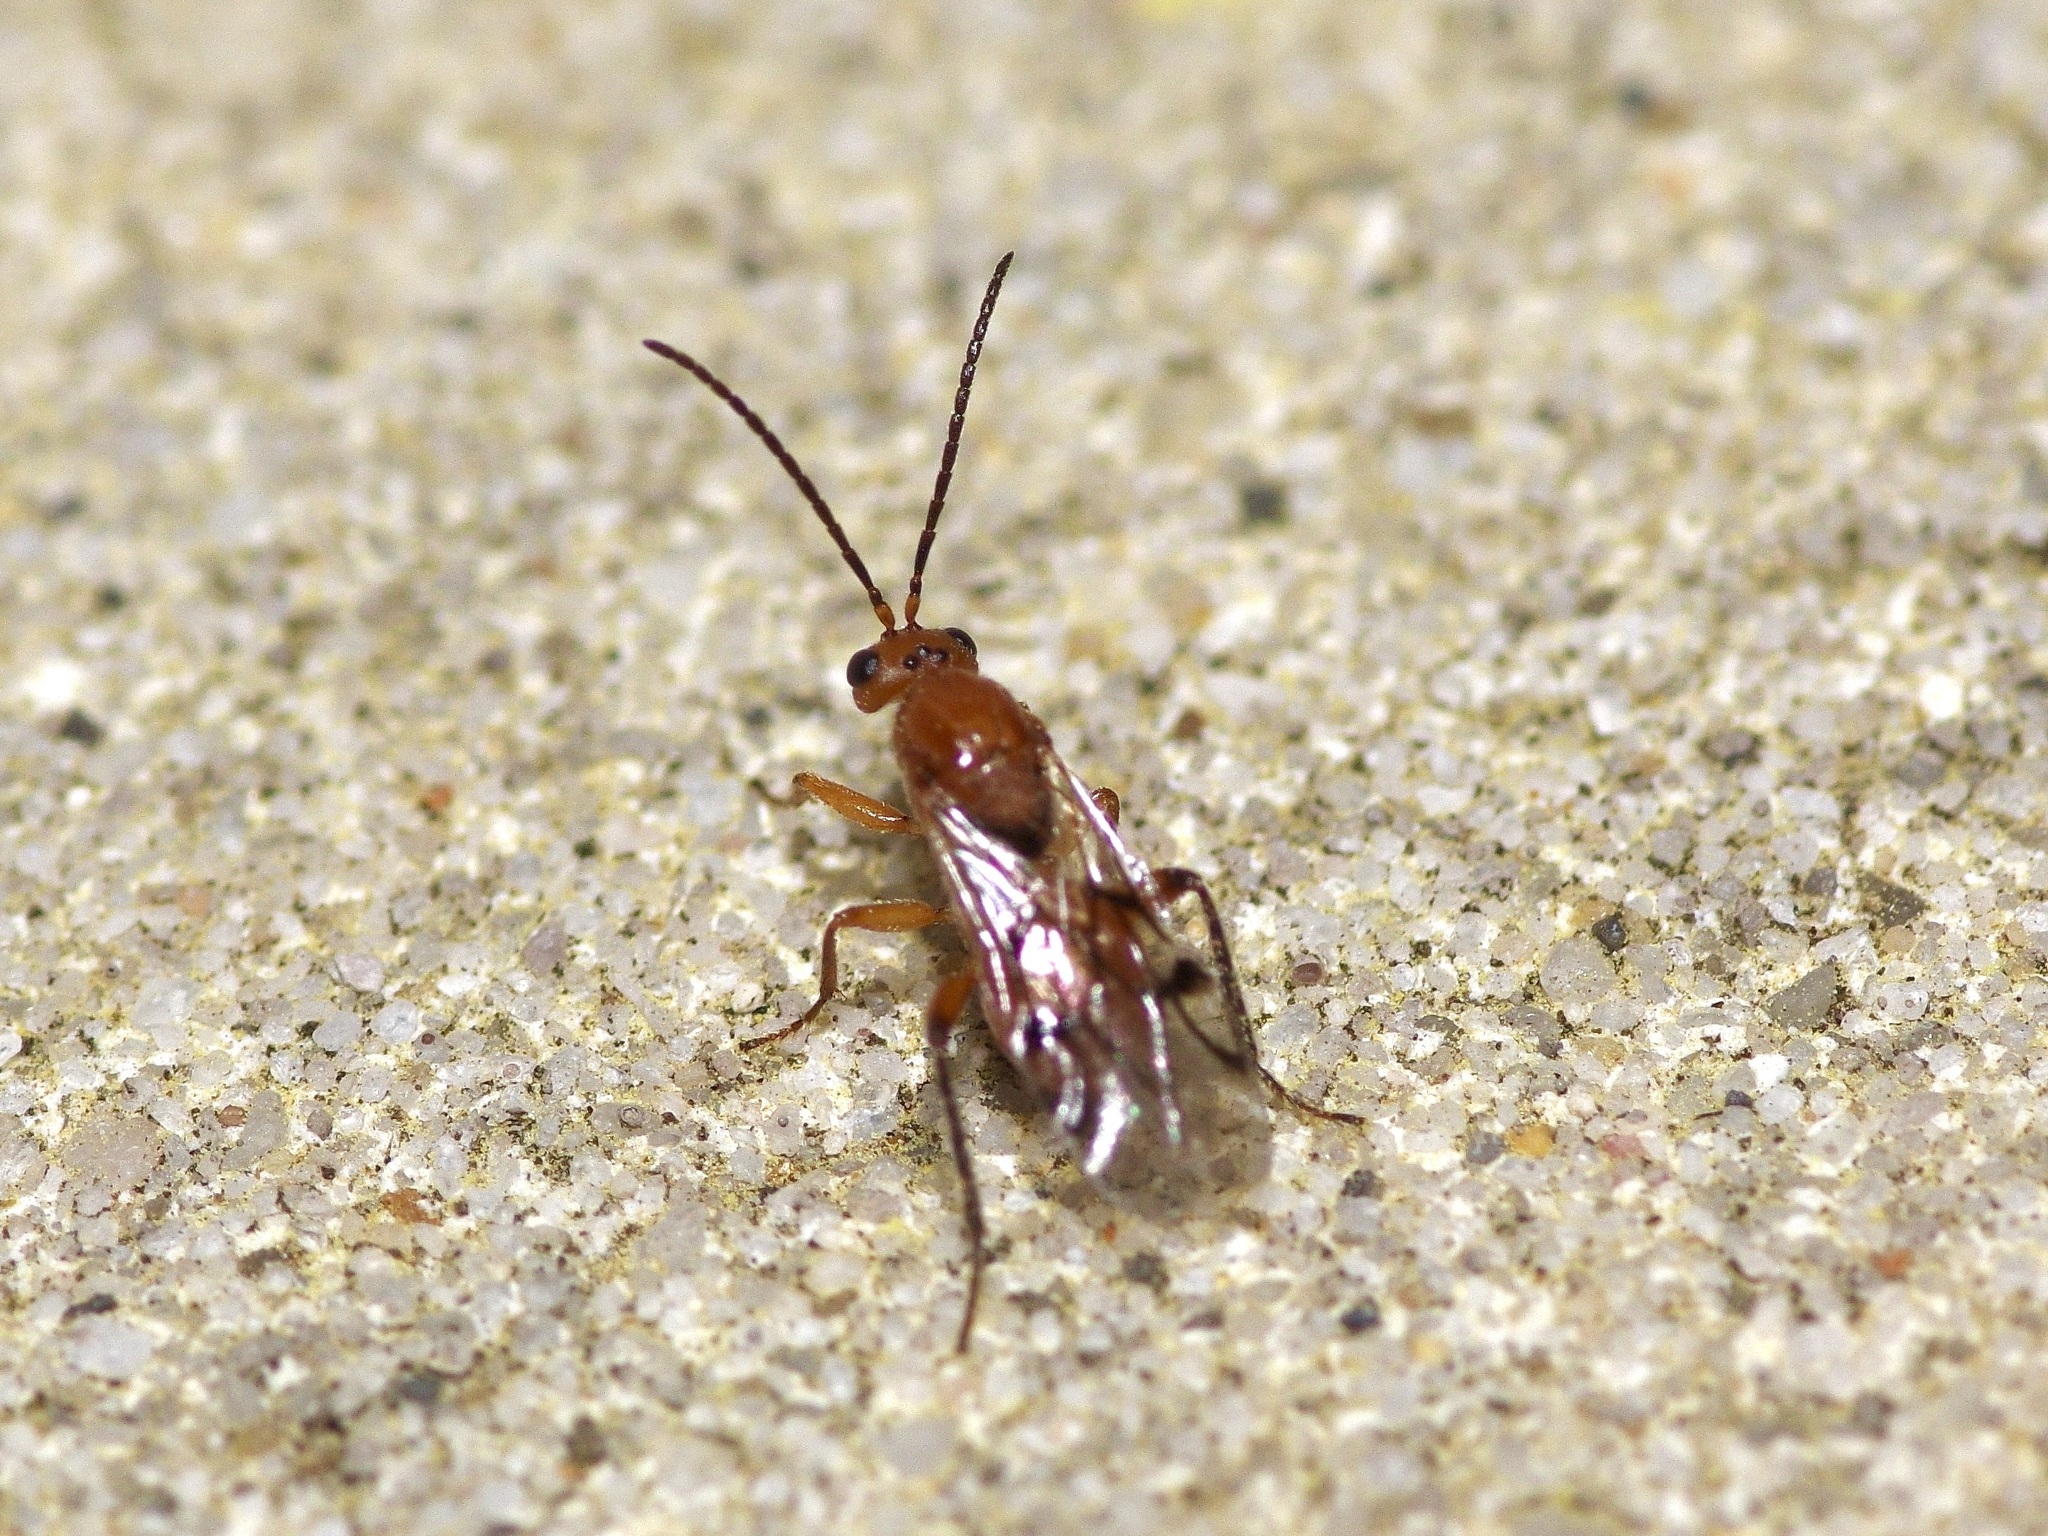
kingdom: Animalia
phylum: Arthropoda
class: Insecta
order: Hymenoptera
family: Cynipidae
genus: Belonocnema
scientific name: Belonocnema kinseyi
